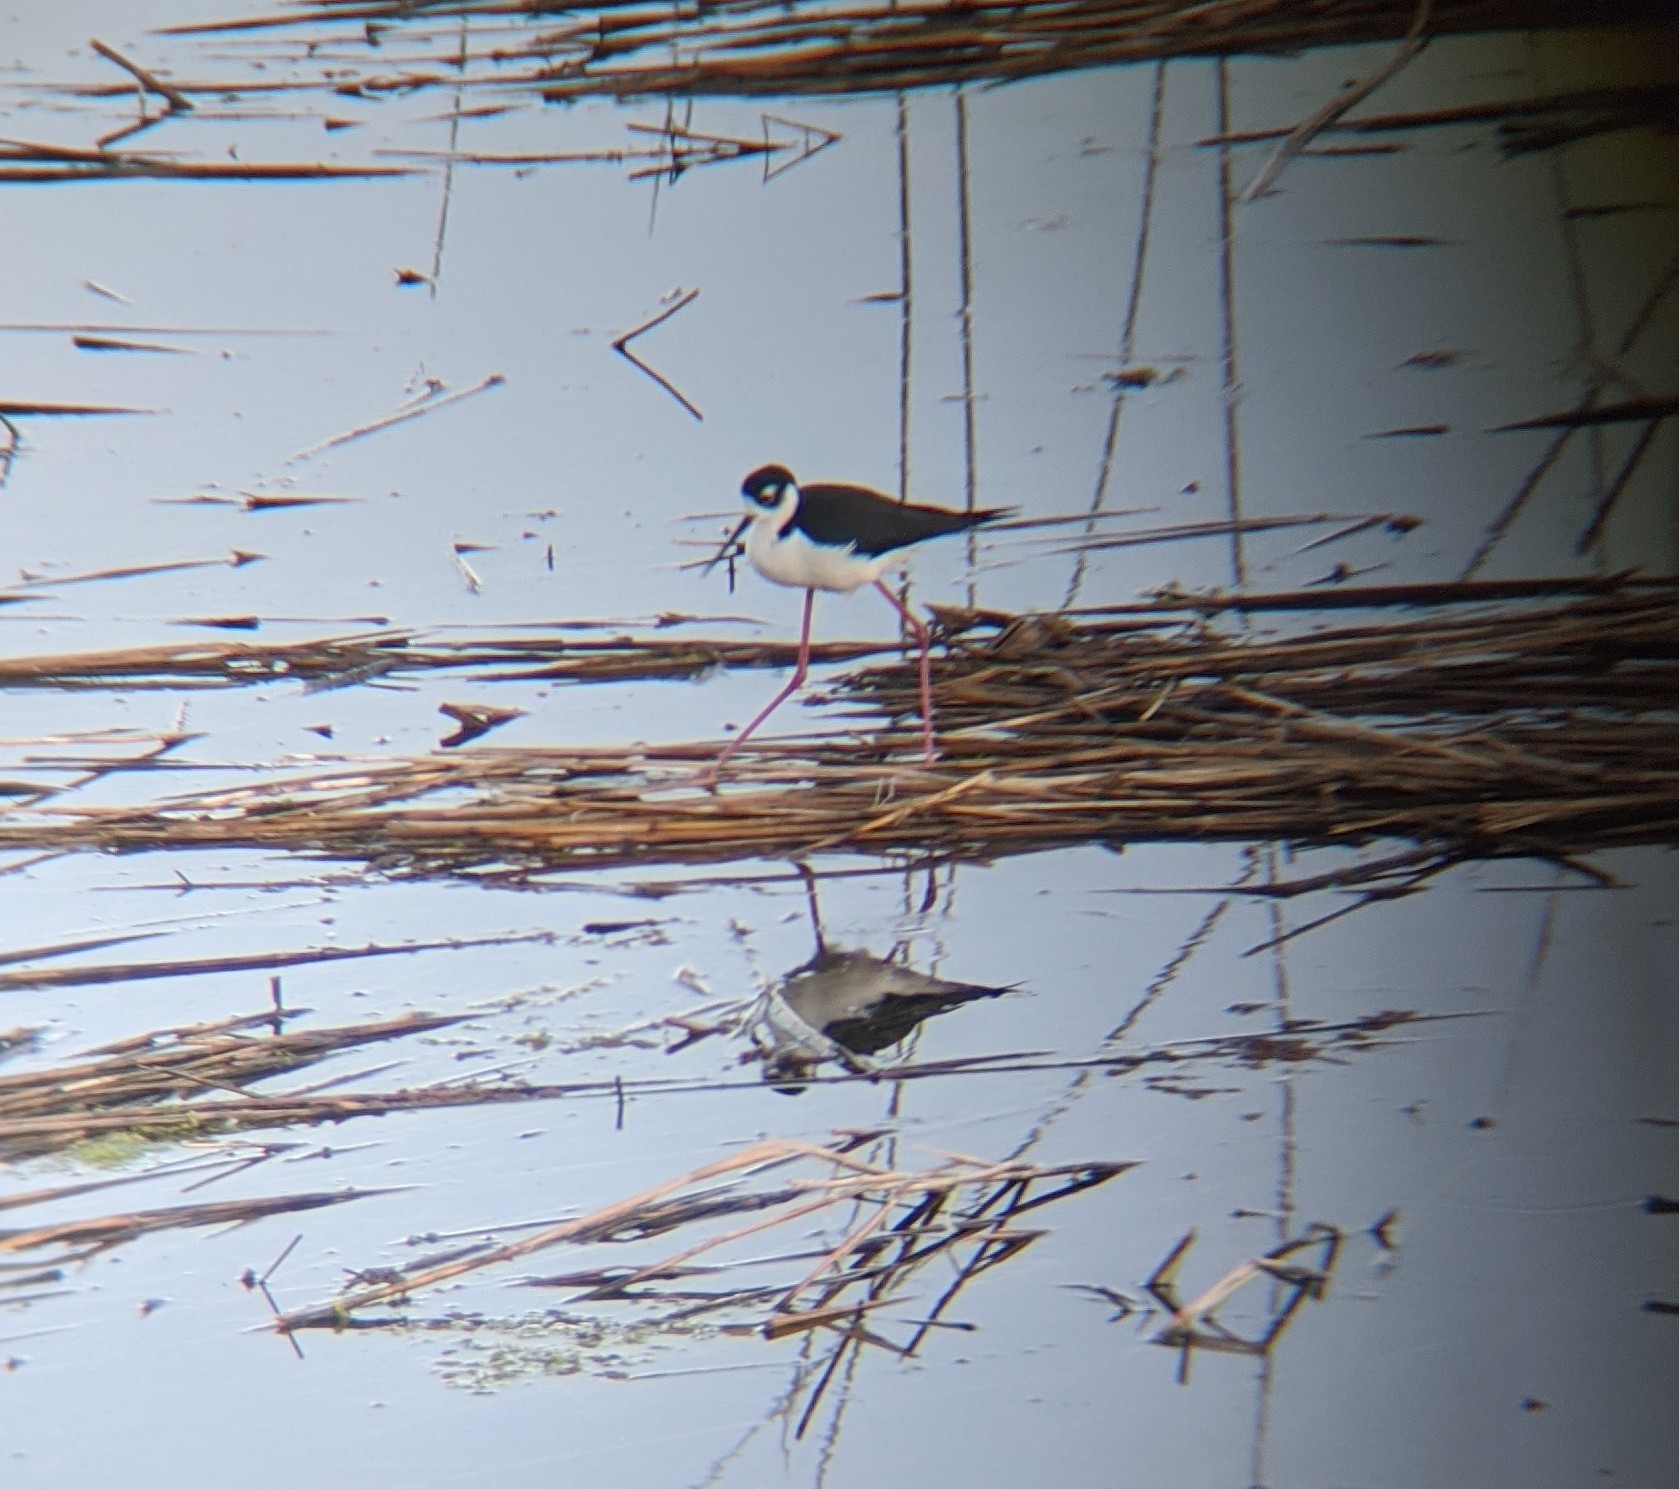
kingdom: Animalia
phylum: Chordata
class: Aves
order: Charadriiformes
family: Recurvirostridae
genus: Himantopus
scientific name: Himantopus mexicanus
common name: Black-necked stilt
